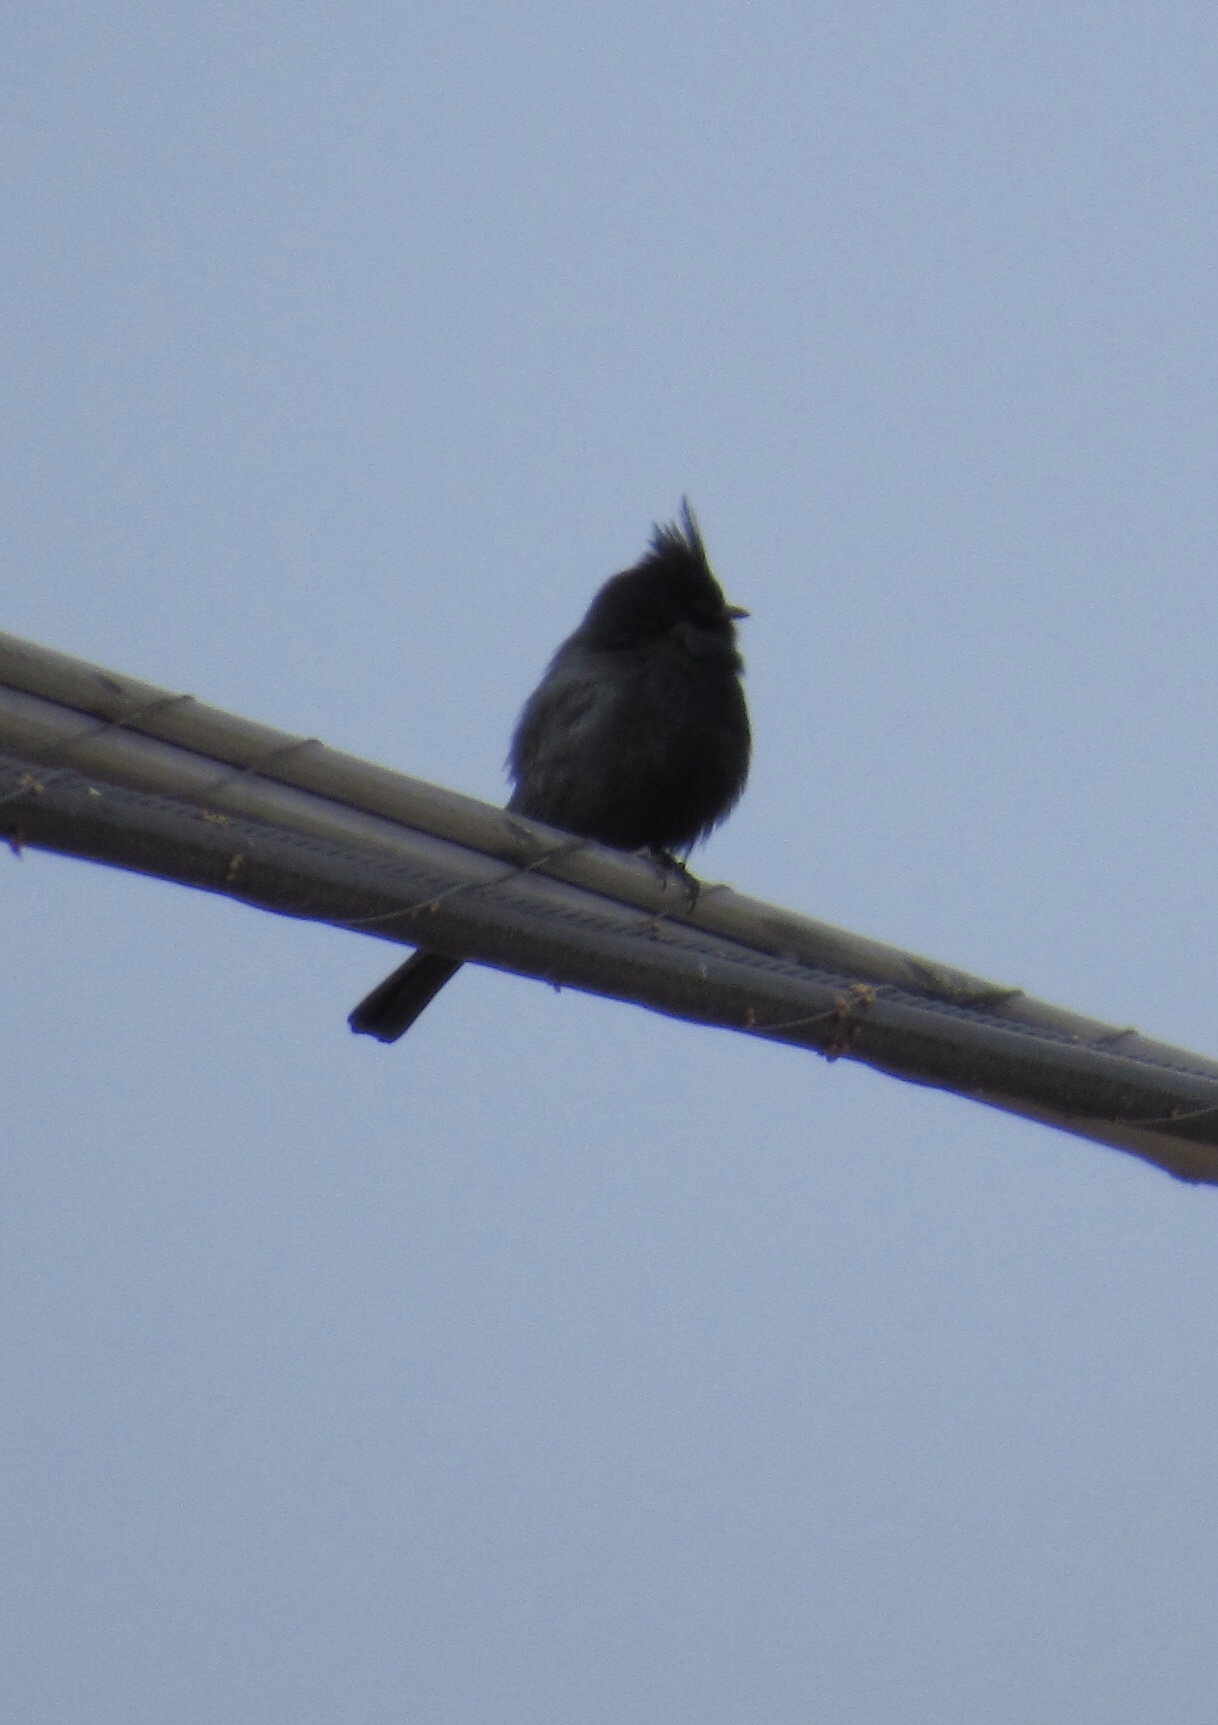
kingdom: Animalia
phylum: Chordata
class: Aves
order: Passeriformes
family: Ptilogonatidae
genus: Phainopepla
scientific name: Phainopepla nitens
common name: Phainopepla
